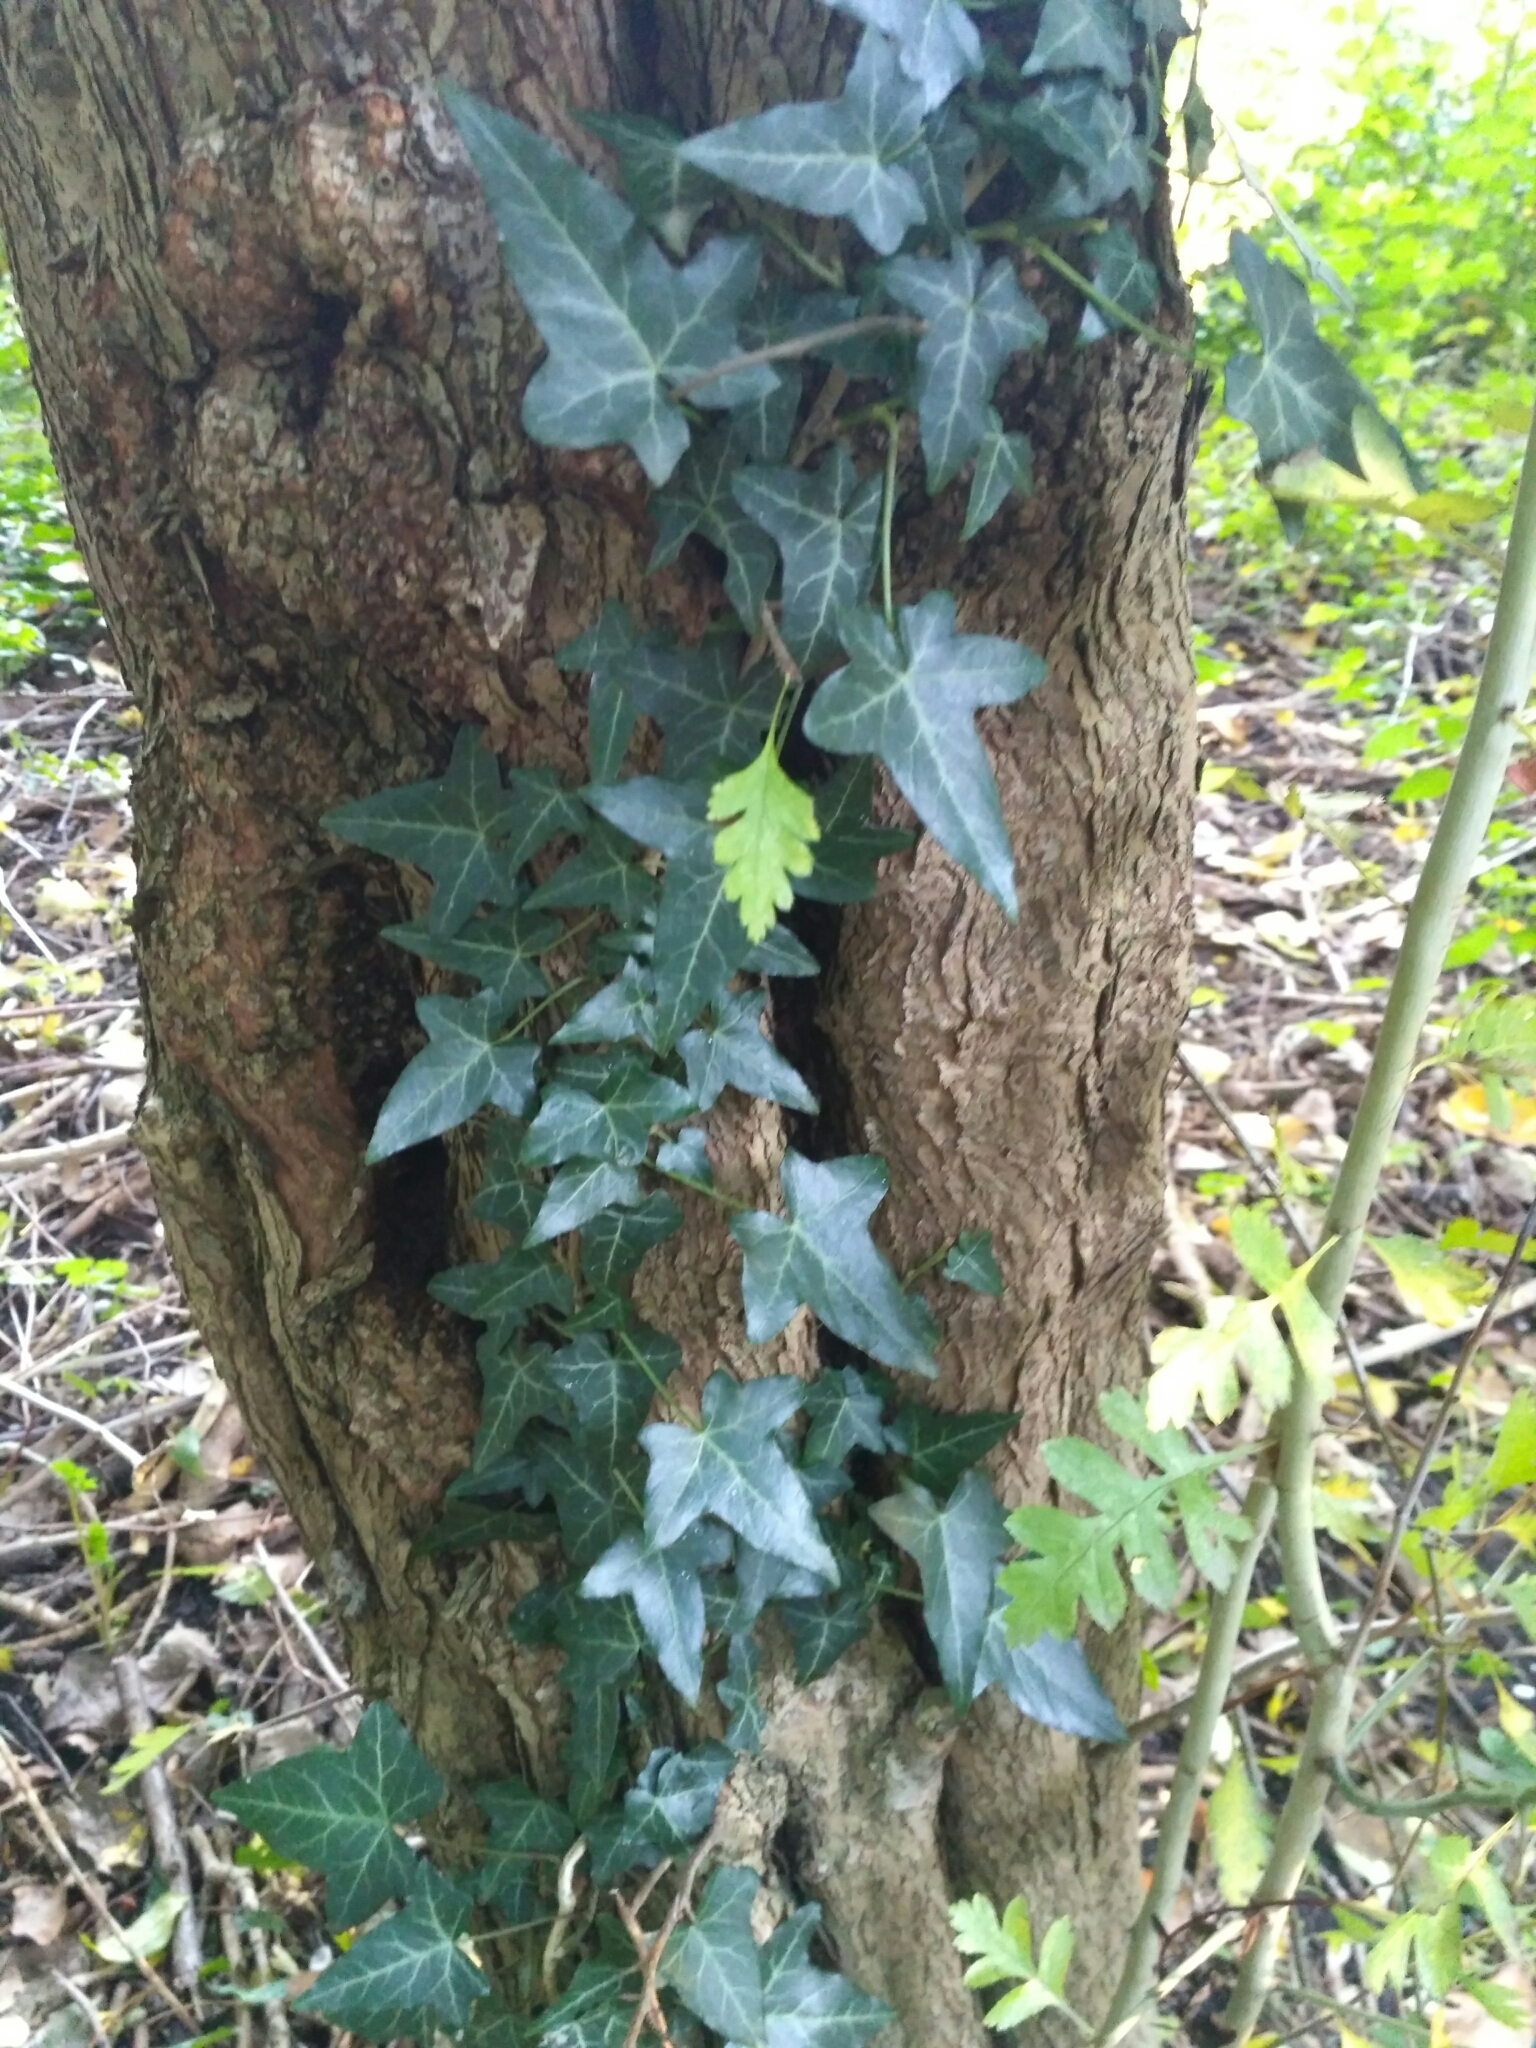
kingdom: Plantae
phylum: Tracheophyta
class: Magnoliopsida
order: Apiales
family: Araliaceae
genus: Hedera
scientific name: Hedera helix
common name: Ivy
